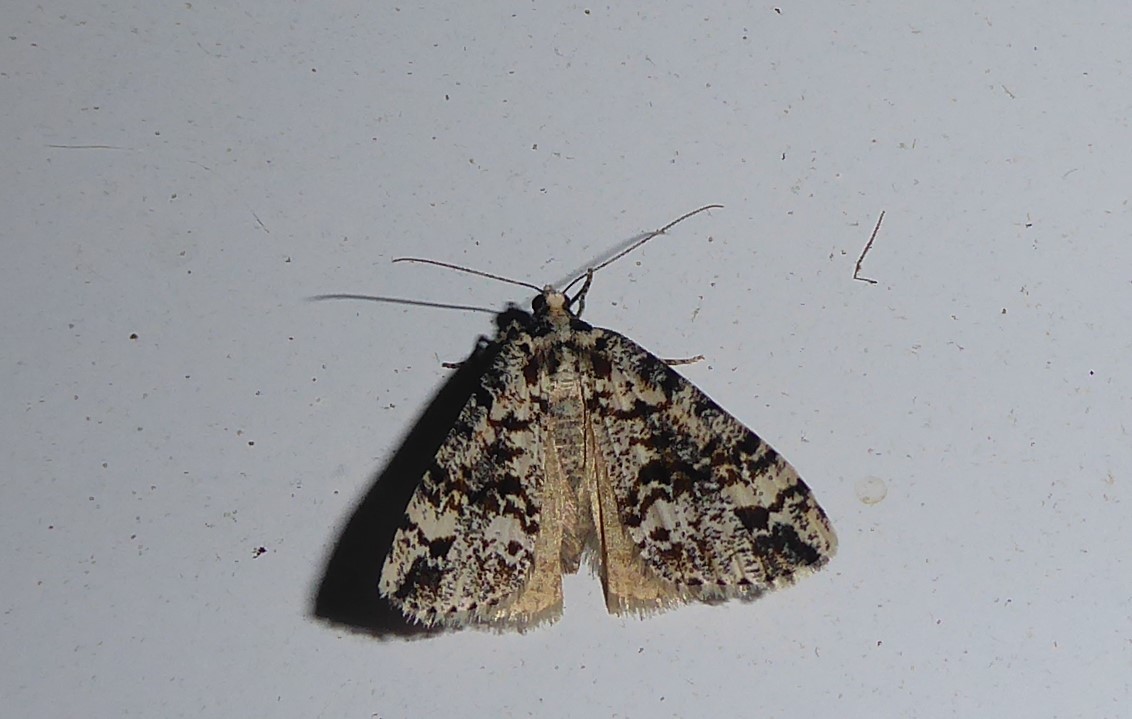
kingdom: Animalia
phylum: Arthropoda
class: Insecta
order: Lepidoptera
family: Geometridae
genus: Pseudocoremia
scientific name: Pseudocoremia leucelaea
